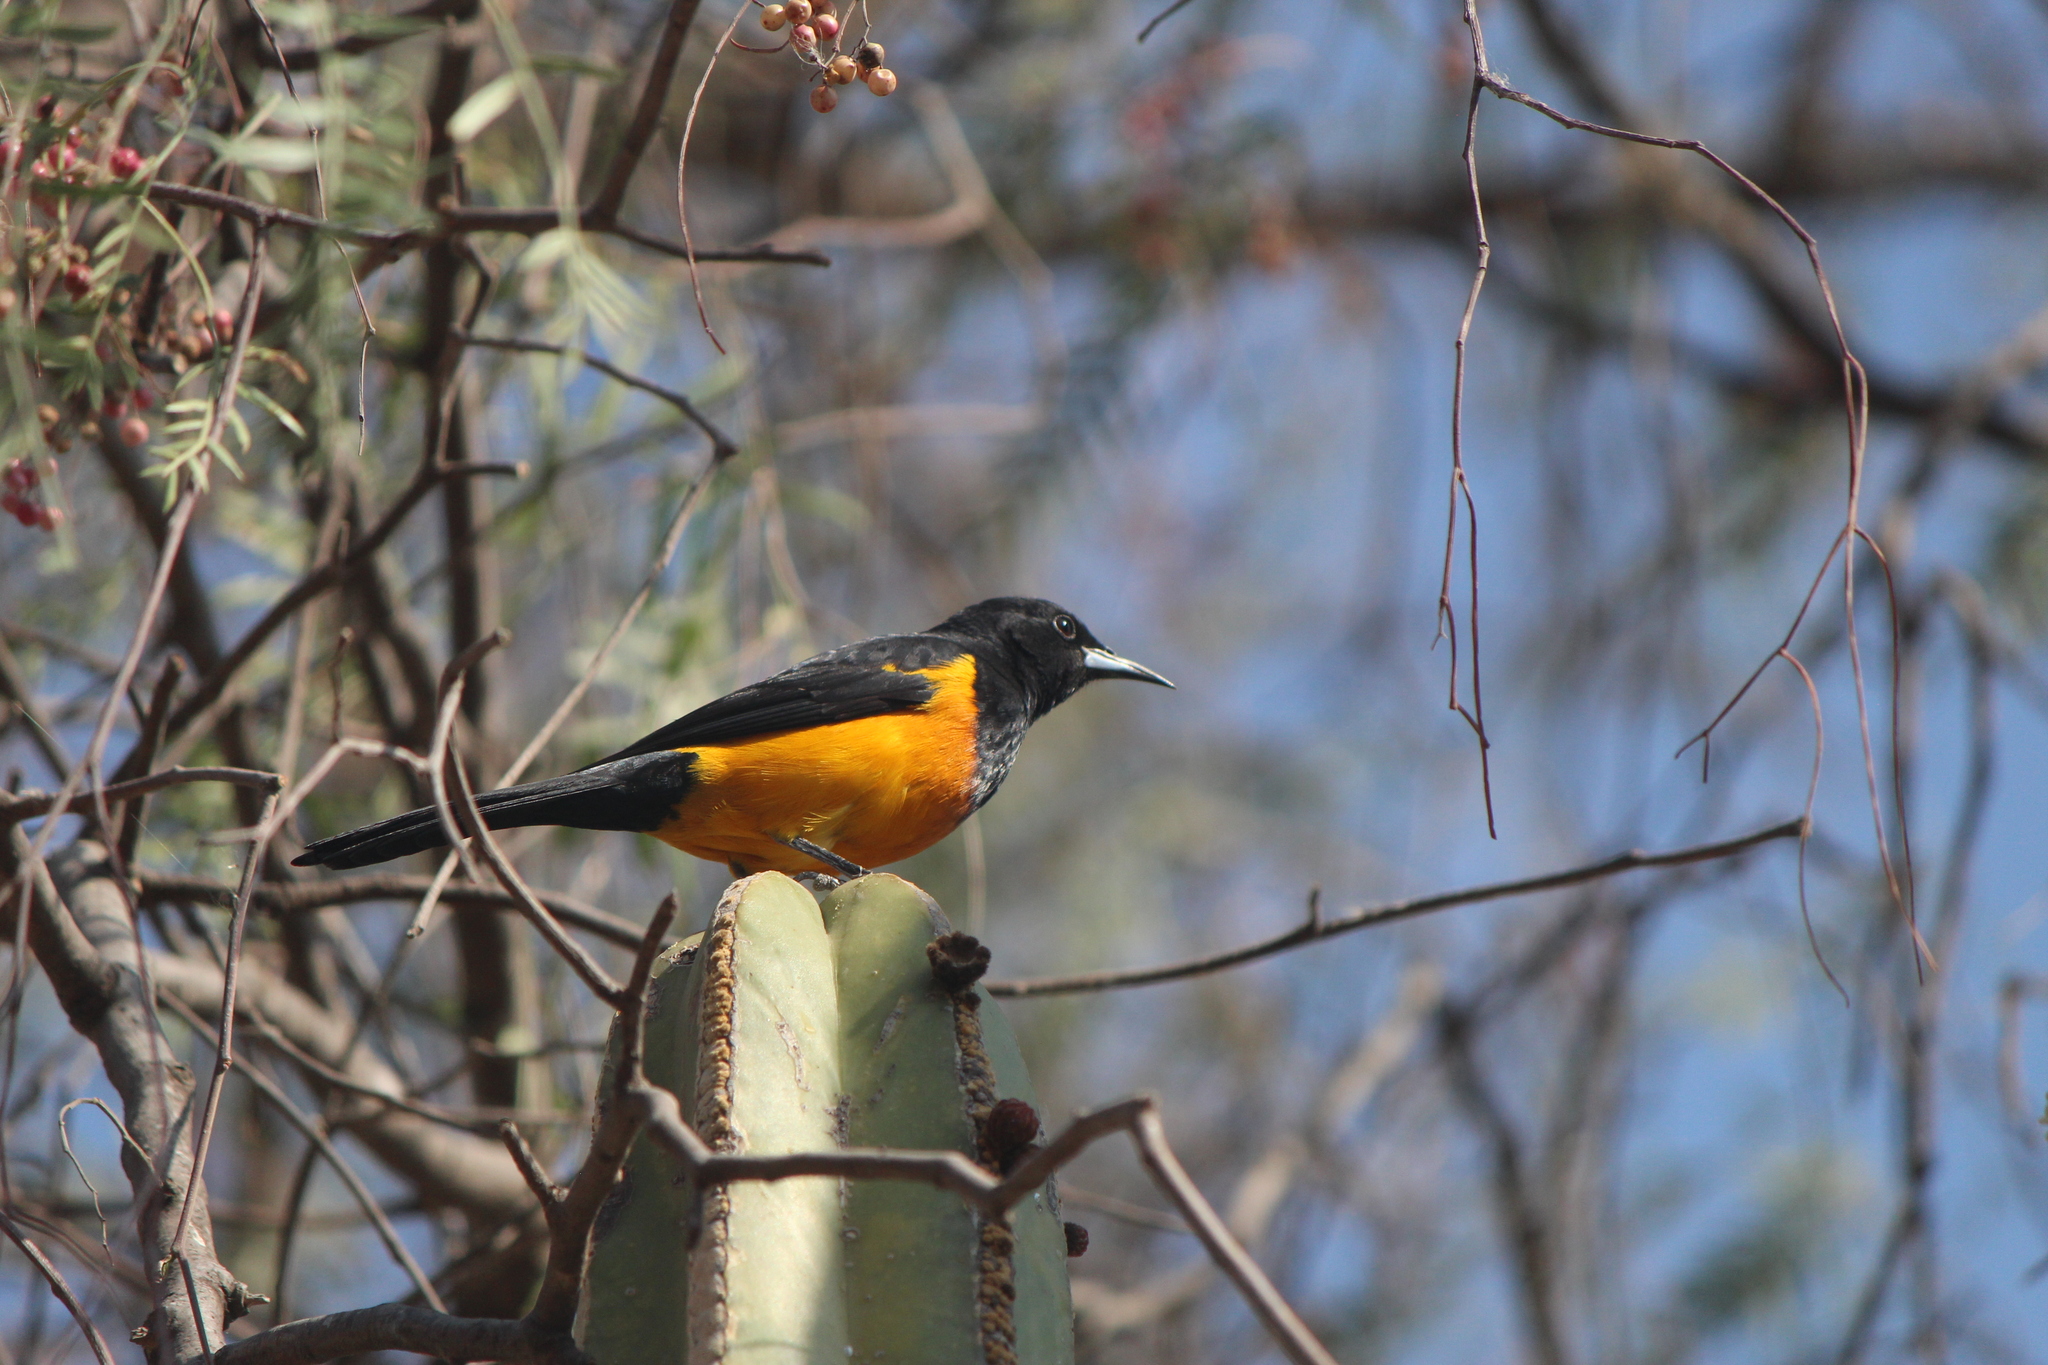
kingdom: Animalia
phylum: Chordata
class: Aves
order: Passeriformes
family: Icteridae
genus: Icterus
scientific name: Icterus wagleri
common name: Black-vented oriole
